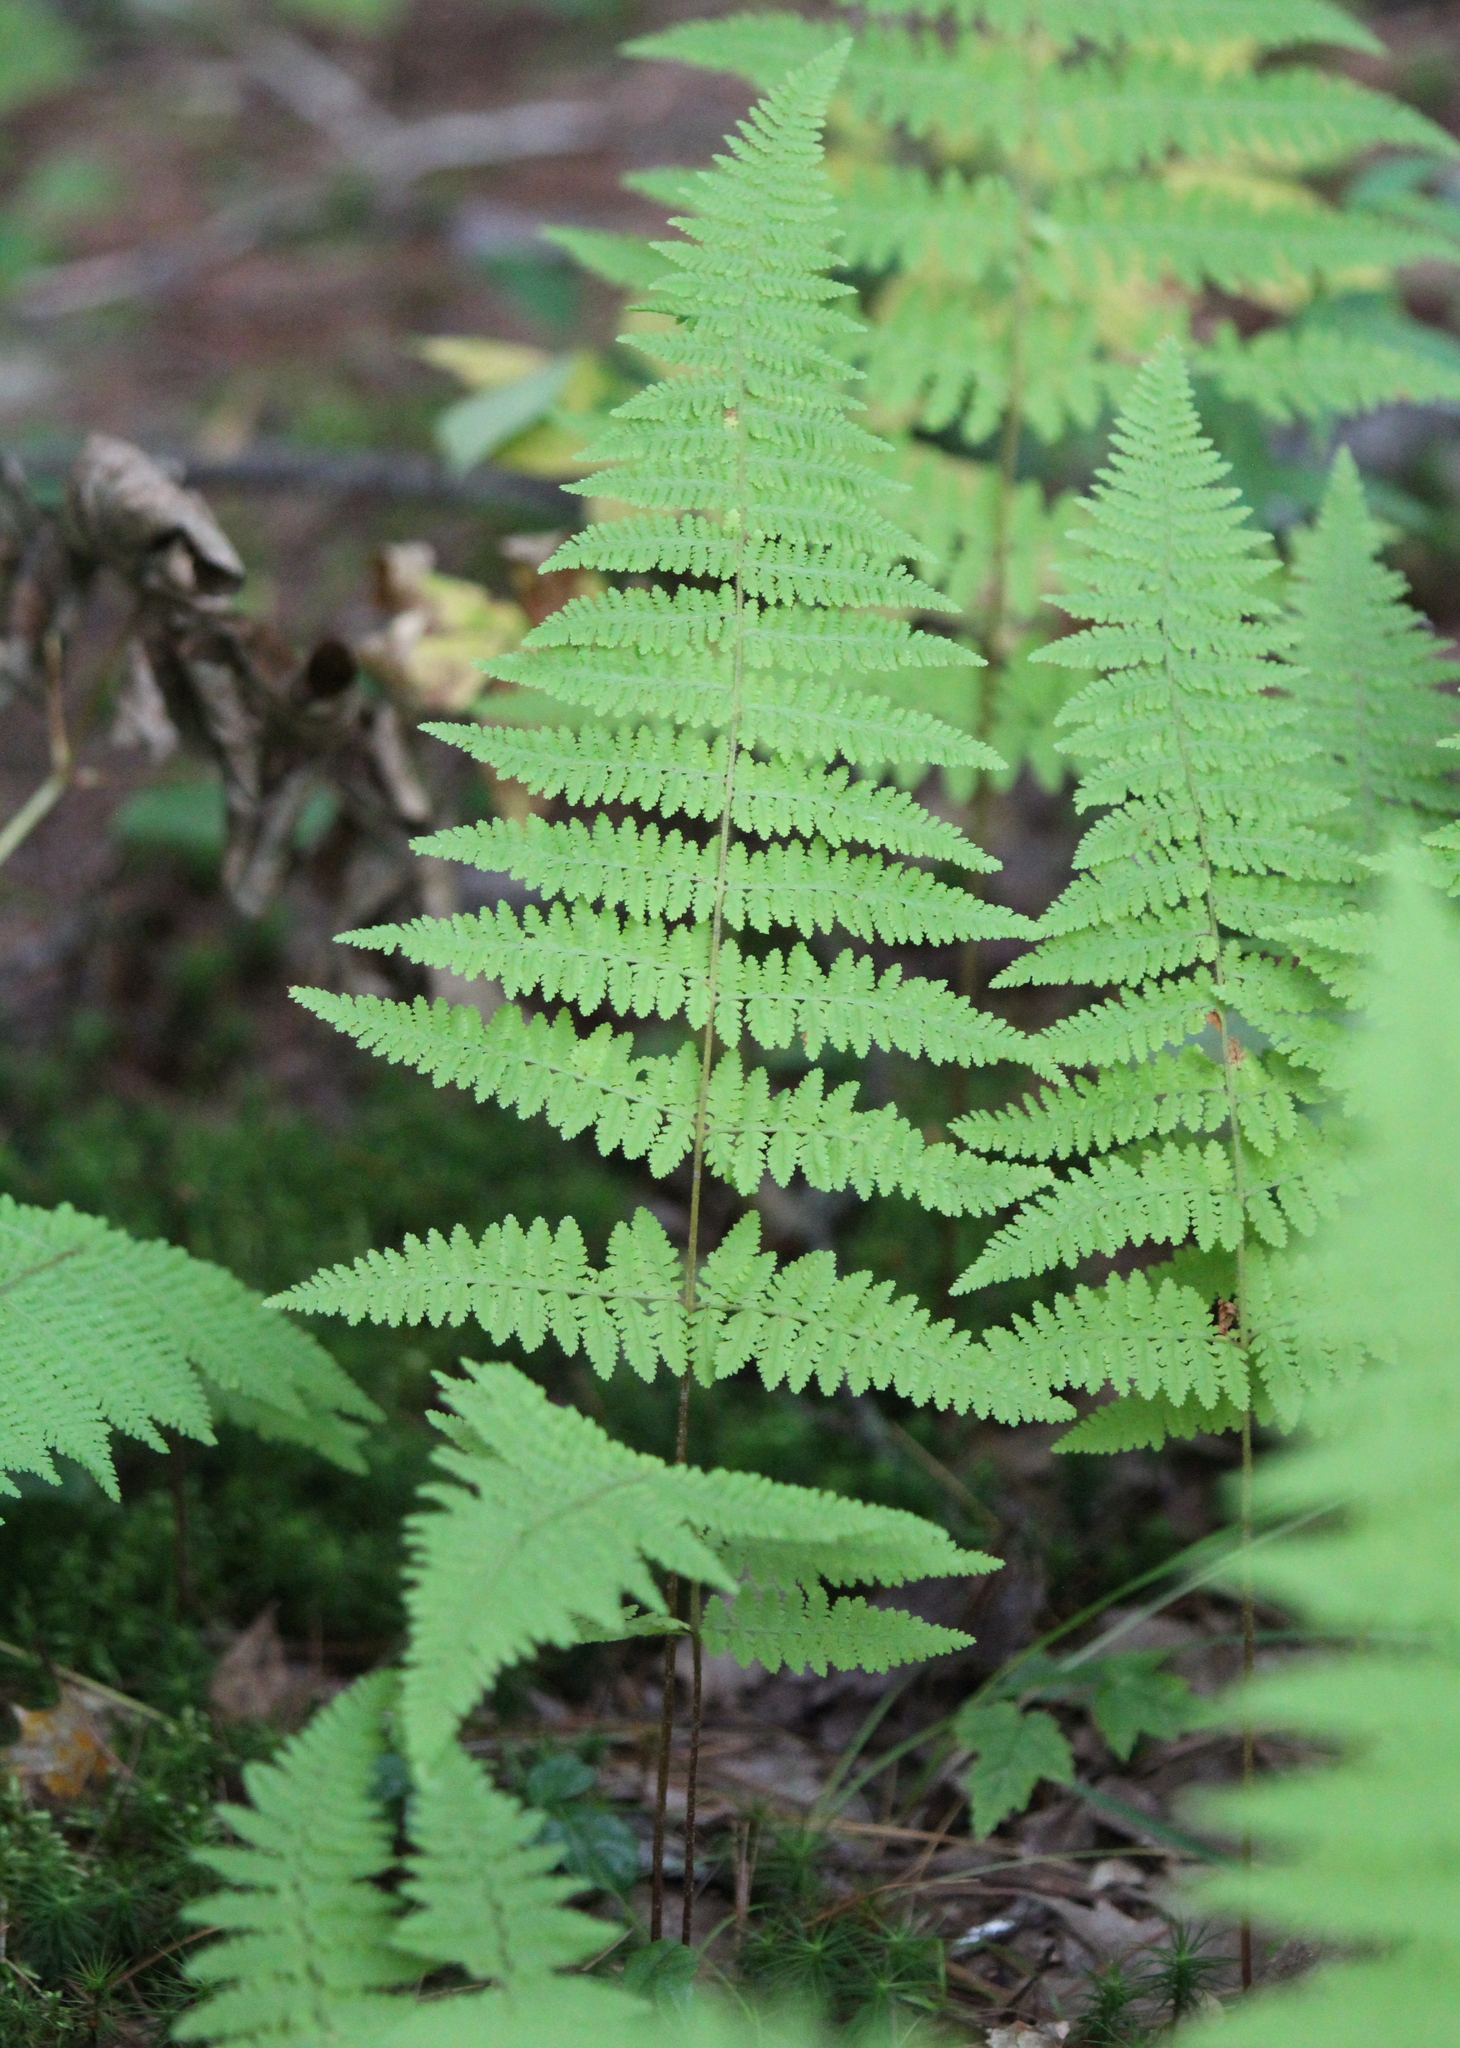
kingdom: Plantae
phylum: Tracheophyta
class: Polypodiopsida
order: Polypodiales
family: Dennstaedtiaceae
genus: Sitobolium
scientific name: Sitobolium punctilobum
